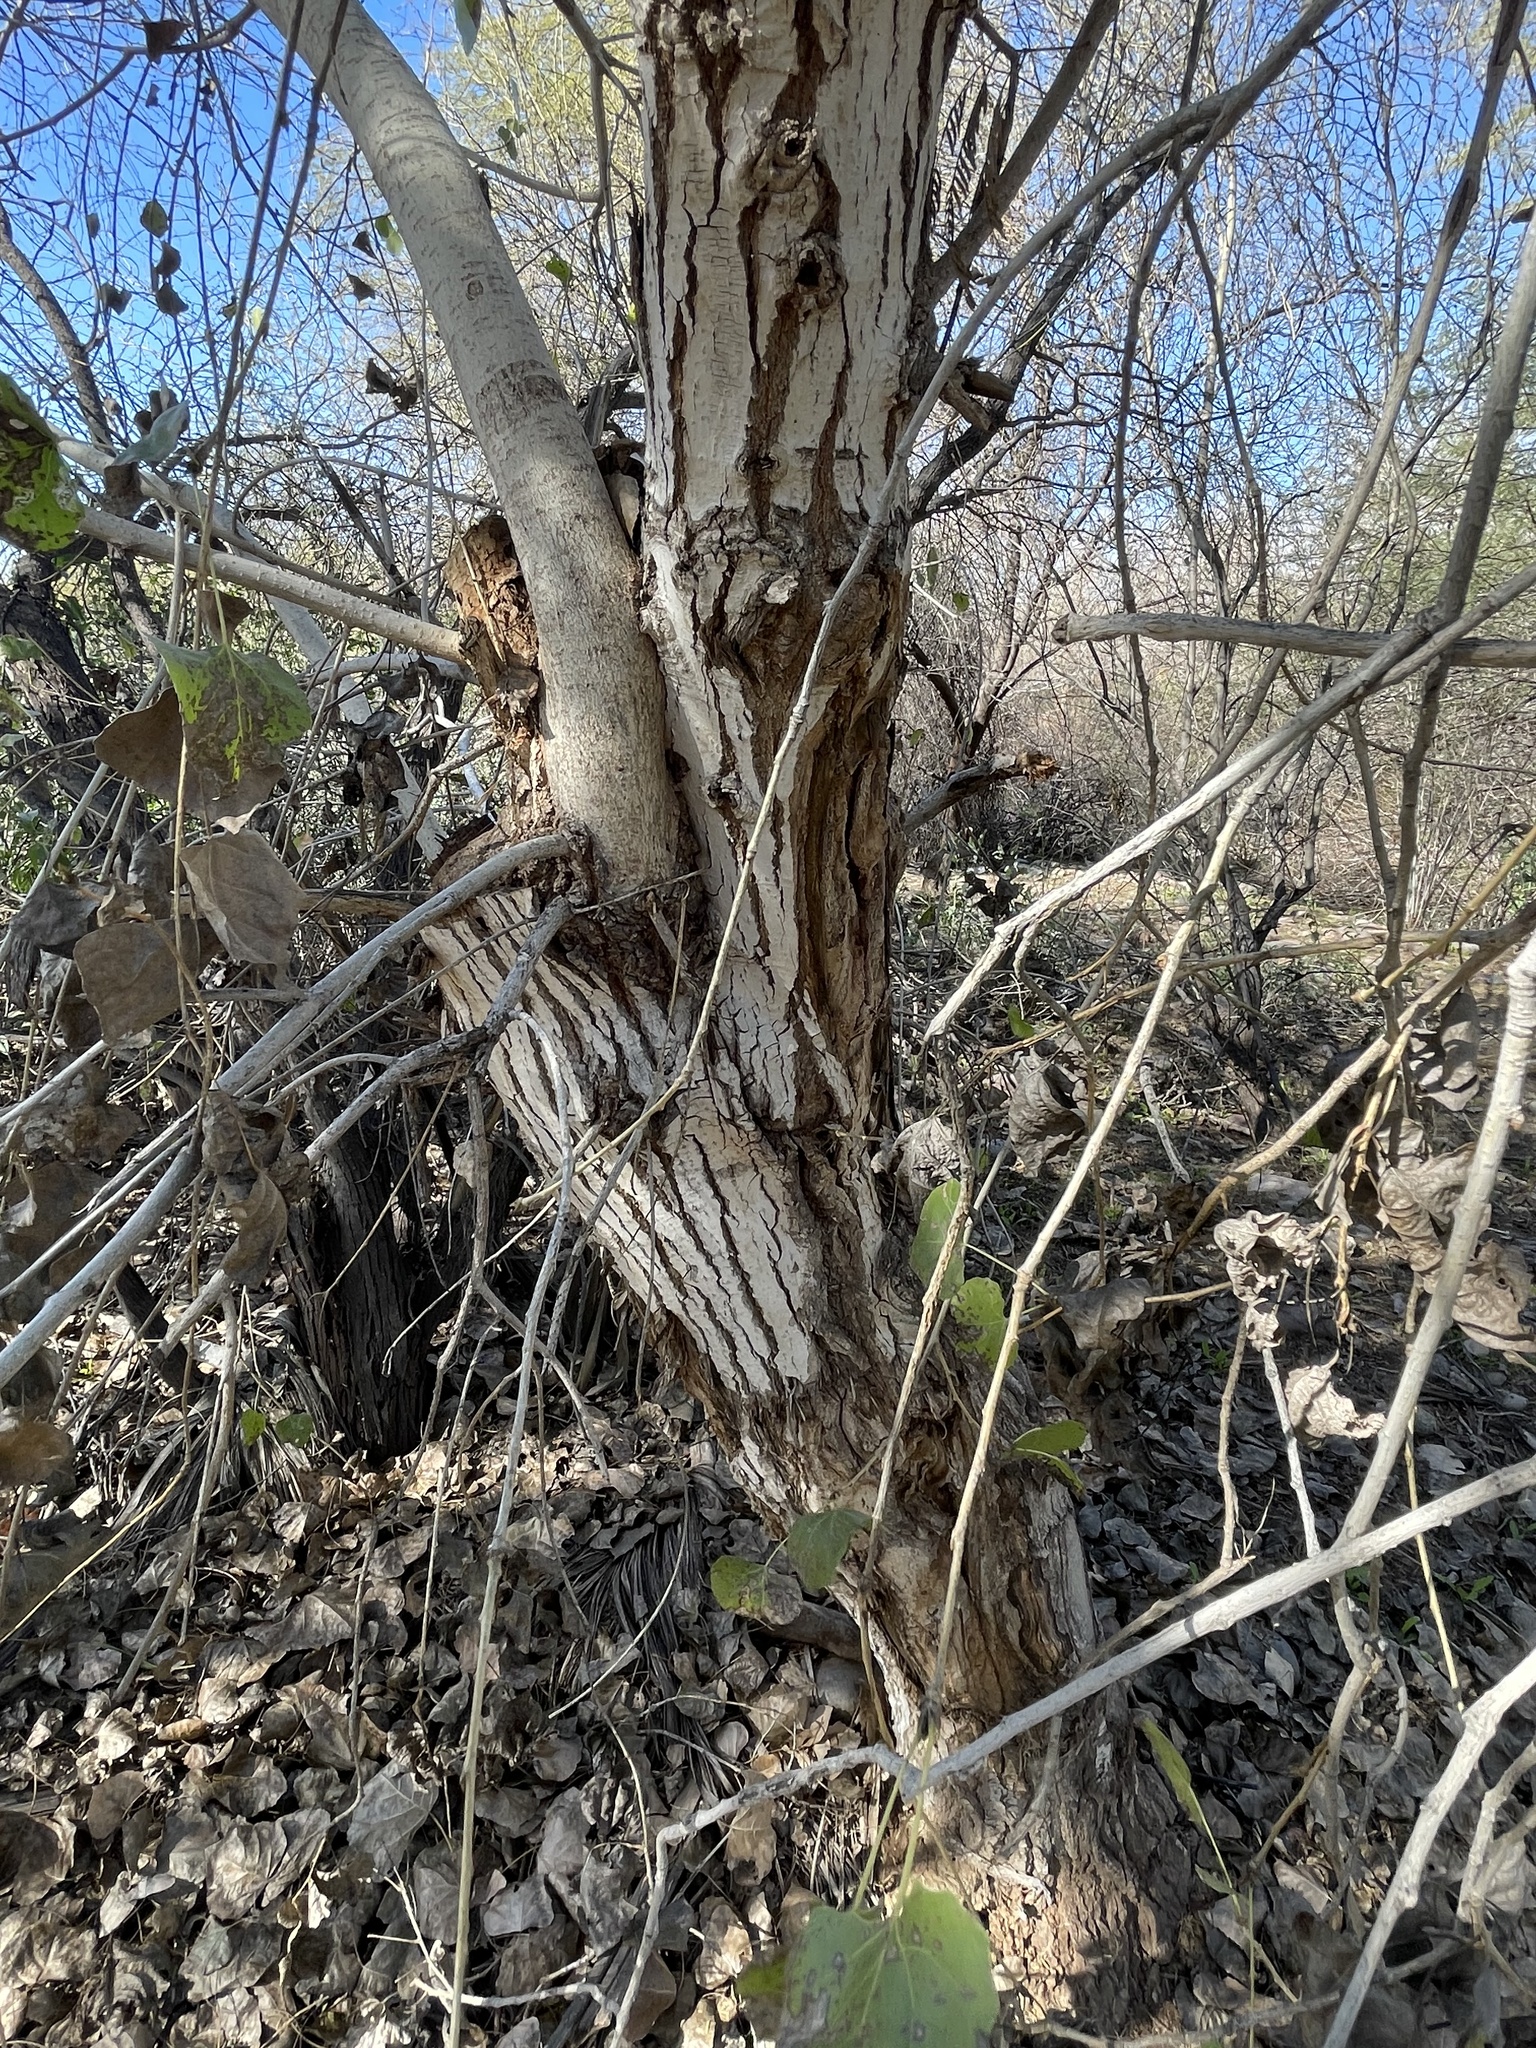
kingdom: Plantae
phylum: Tracheophyta
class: Magnoliopsida
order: Malpighiales
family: Salicaceae
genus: Populus
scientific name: Populus fremontii
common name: Fremont's cottonwood
